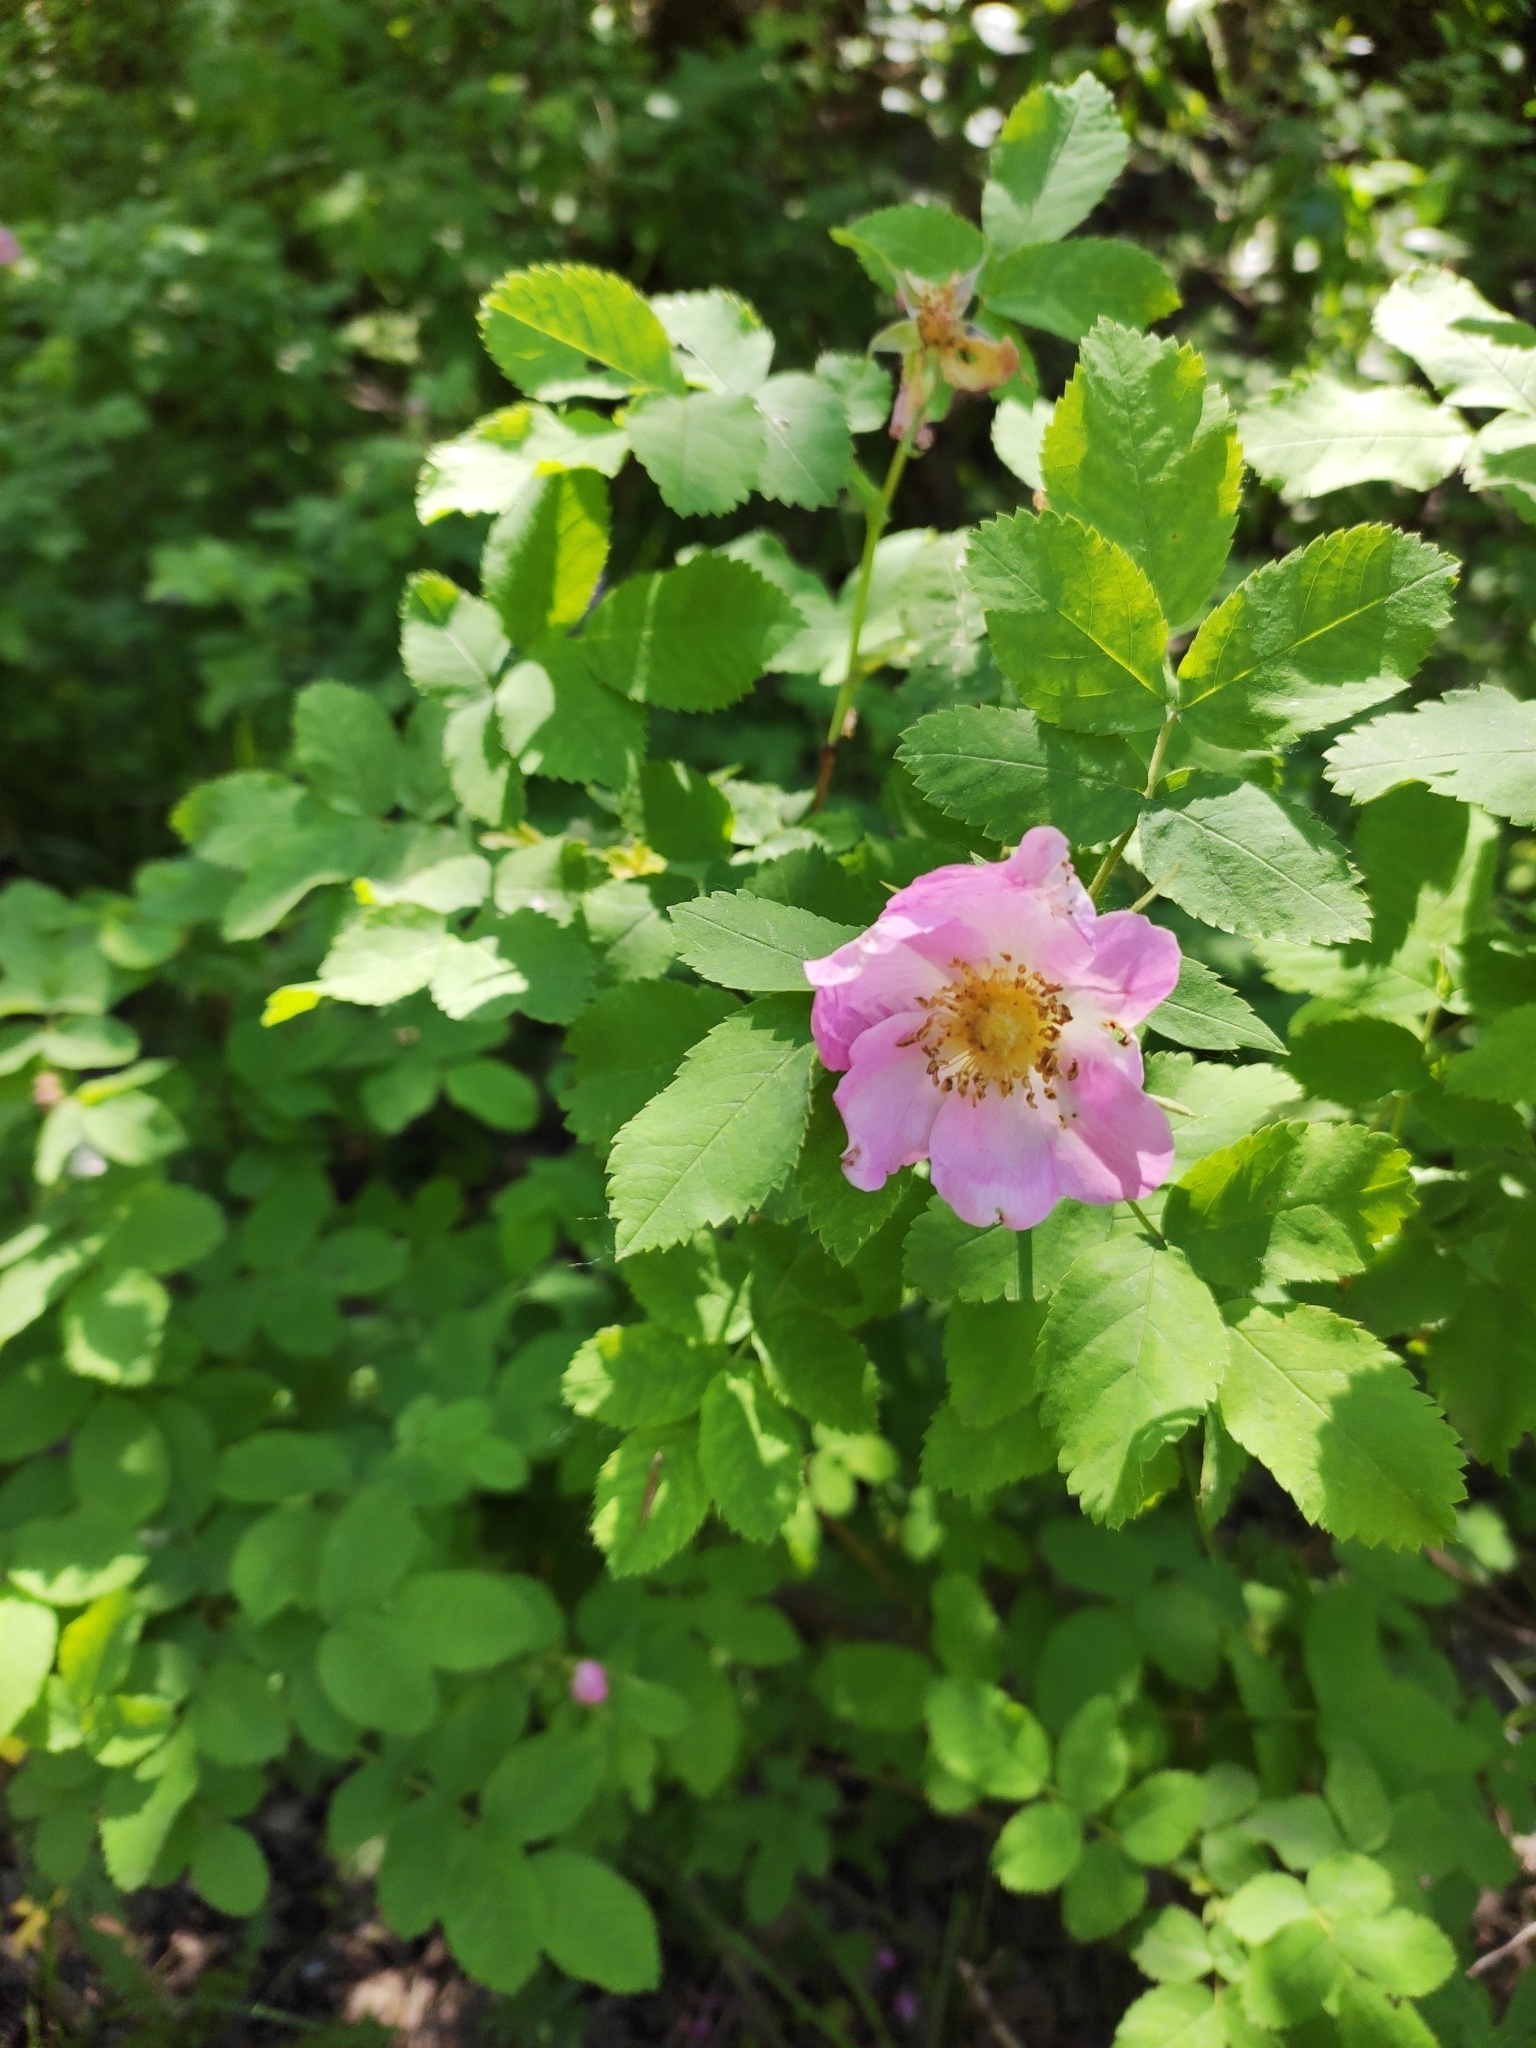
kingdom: Plantae
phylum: Tracheophyta
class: Magnoliopsida
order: Rosales
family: Rosaceae
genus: Rosa
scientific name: Rosa majalis
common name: Cinnamon rose
